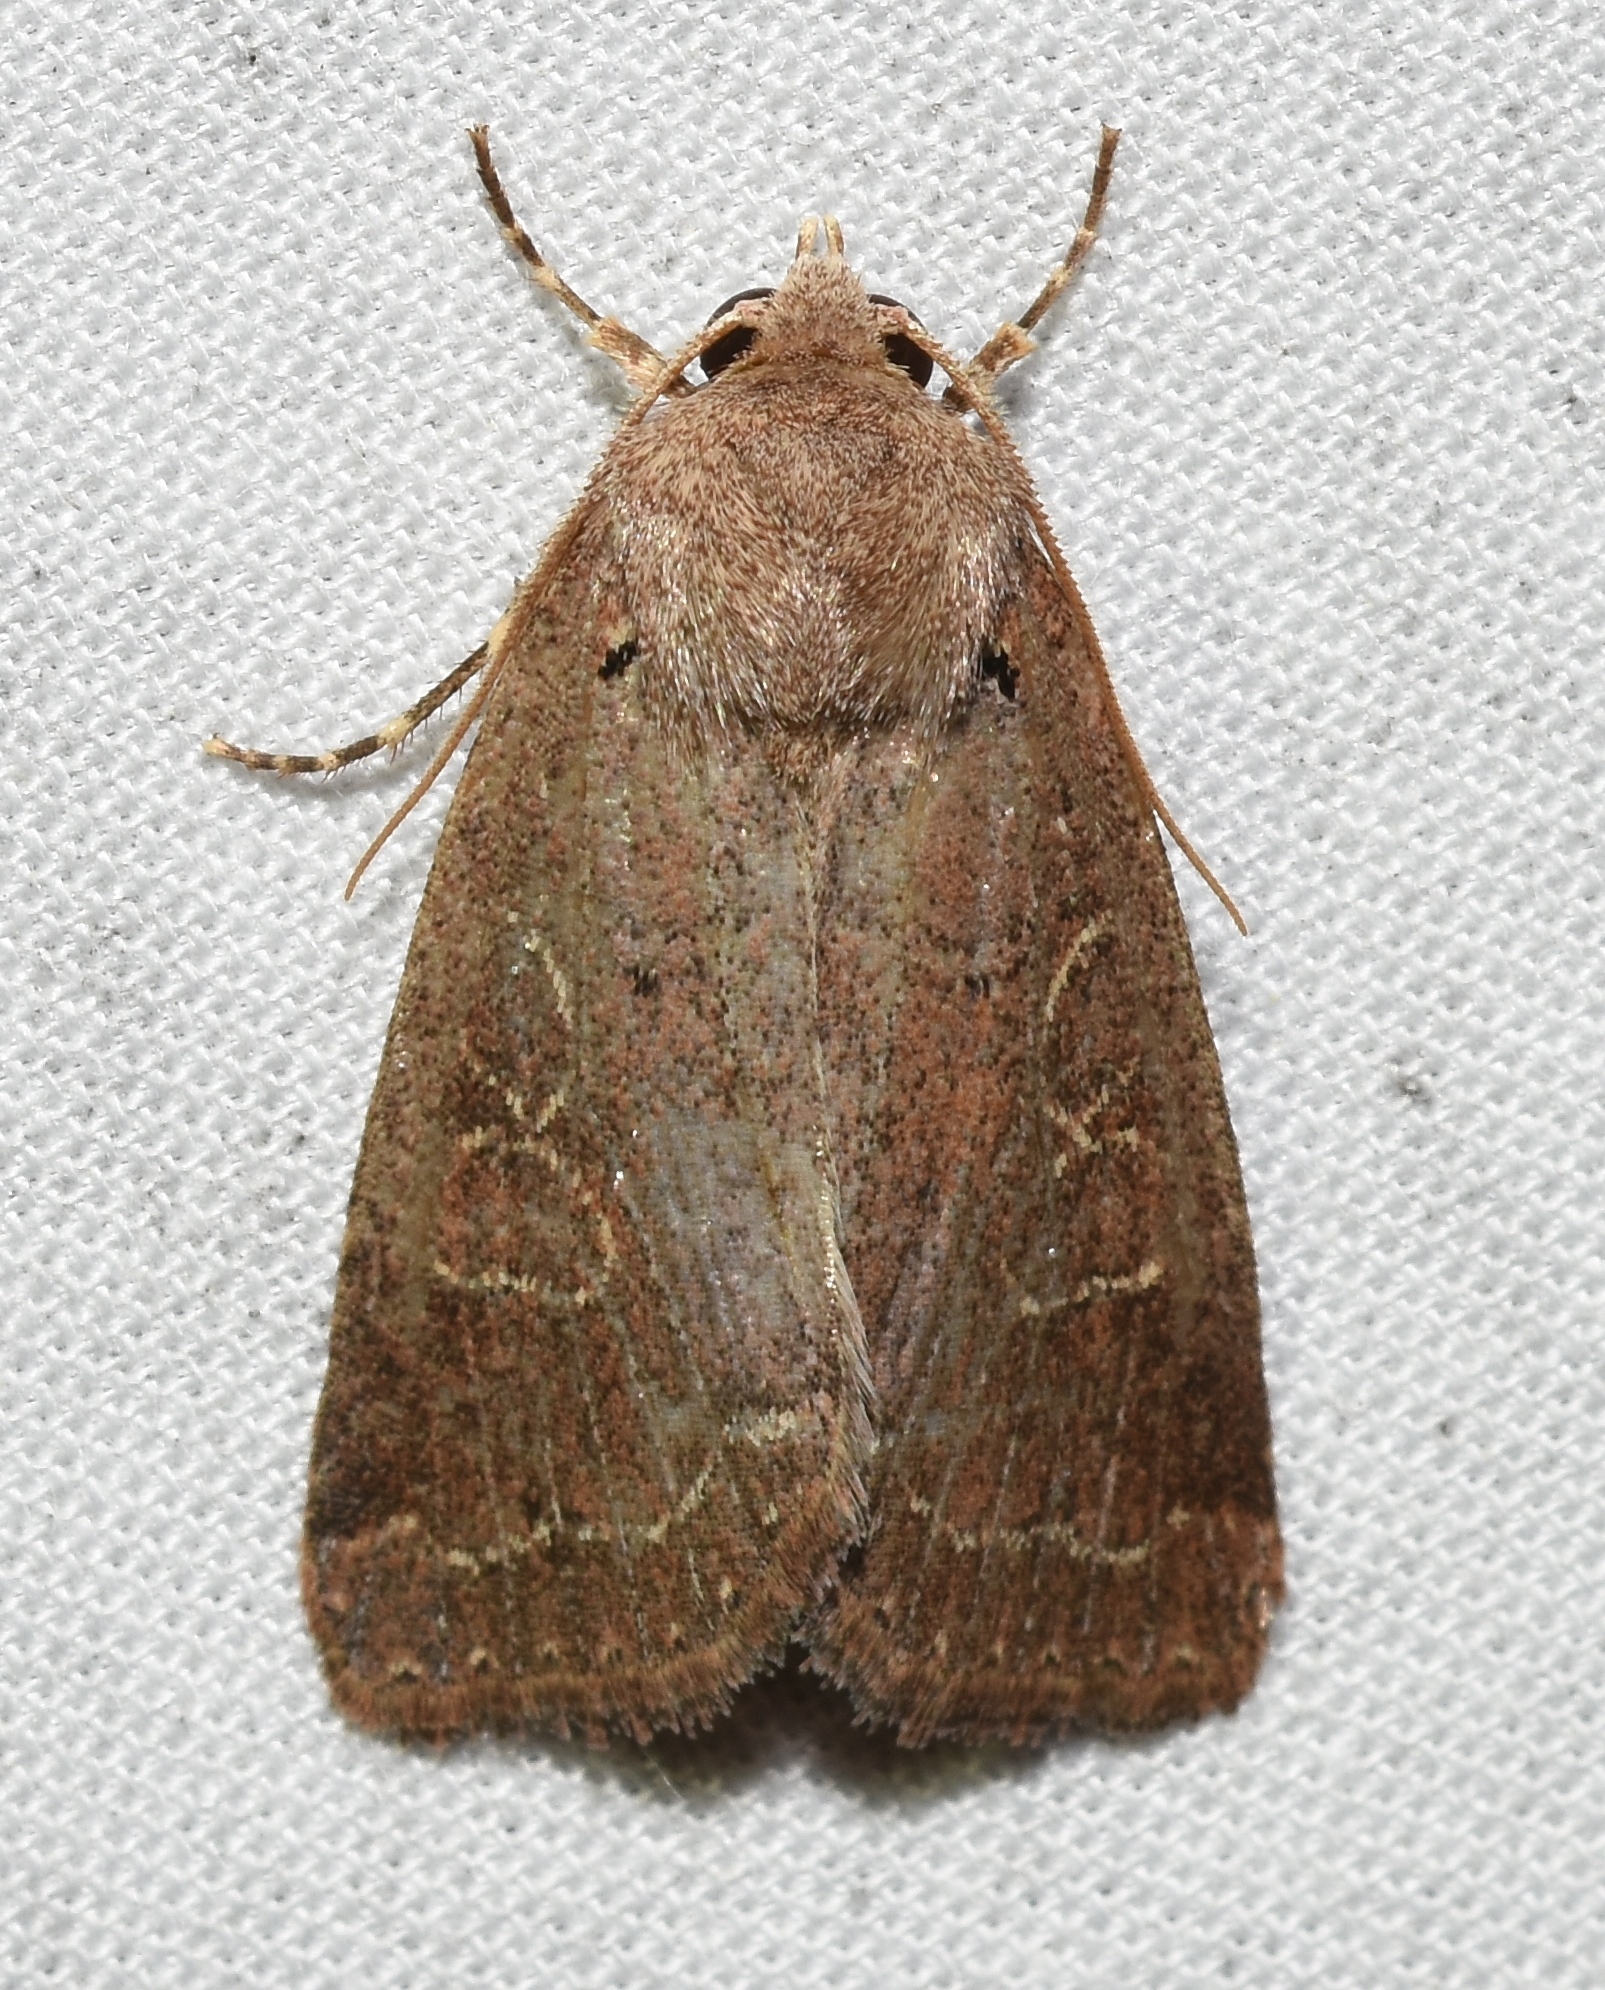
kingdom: Animalia
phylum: Arthropoda
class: Insecta
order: Lepidoptera
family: Noctuidae
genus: Kocakina
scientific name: Kocakina fidelis
